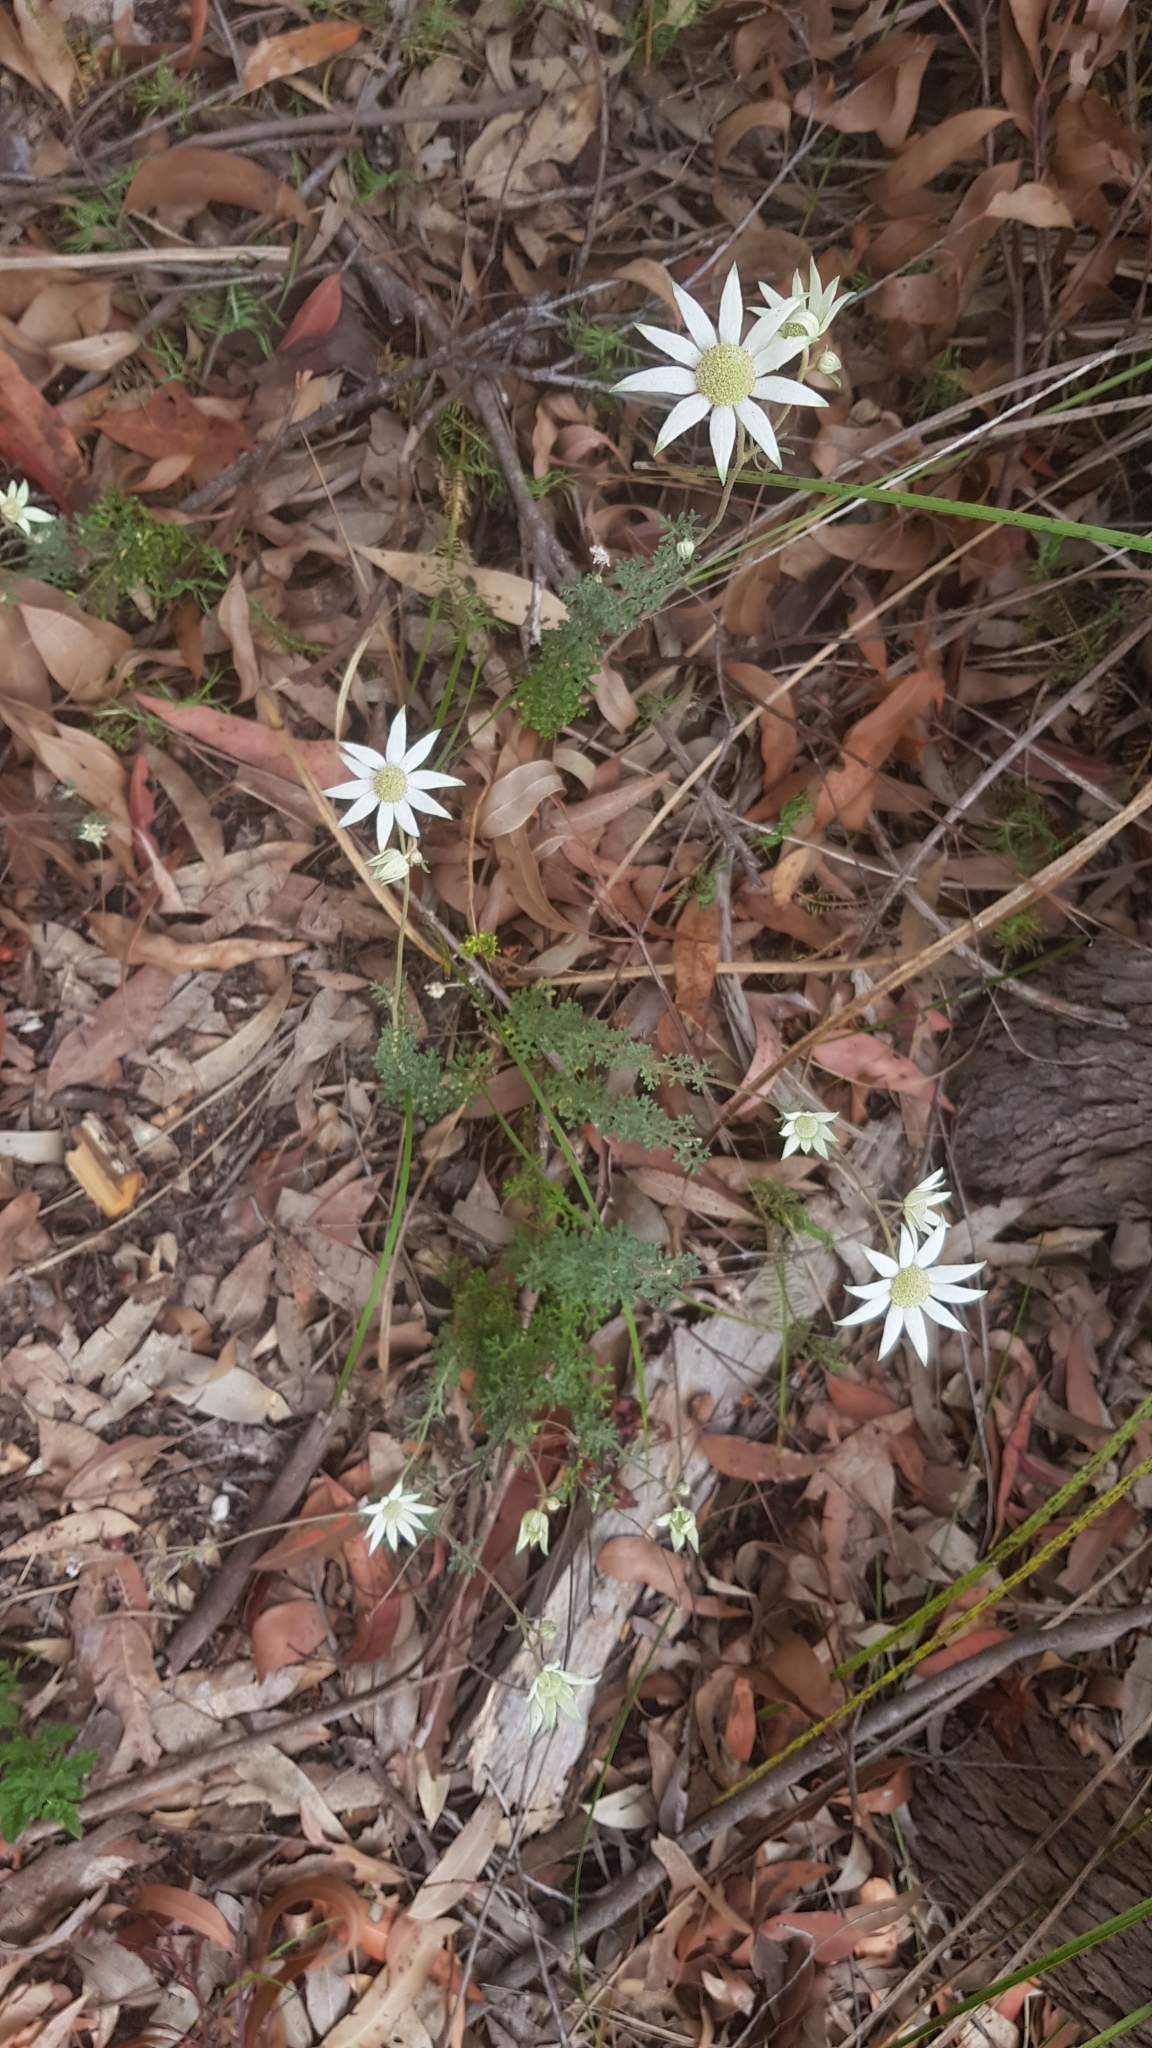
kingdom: Plantae
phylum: Tracheophyta
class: Magnoliopsida
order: Apiales
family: Apiaceae
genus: Actinotus
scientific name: Actinotus helianthi
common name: Flannel-flower
